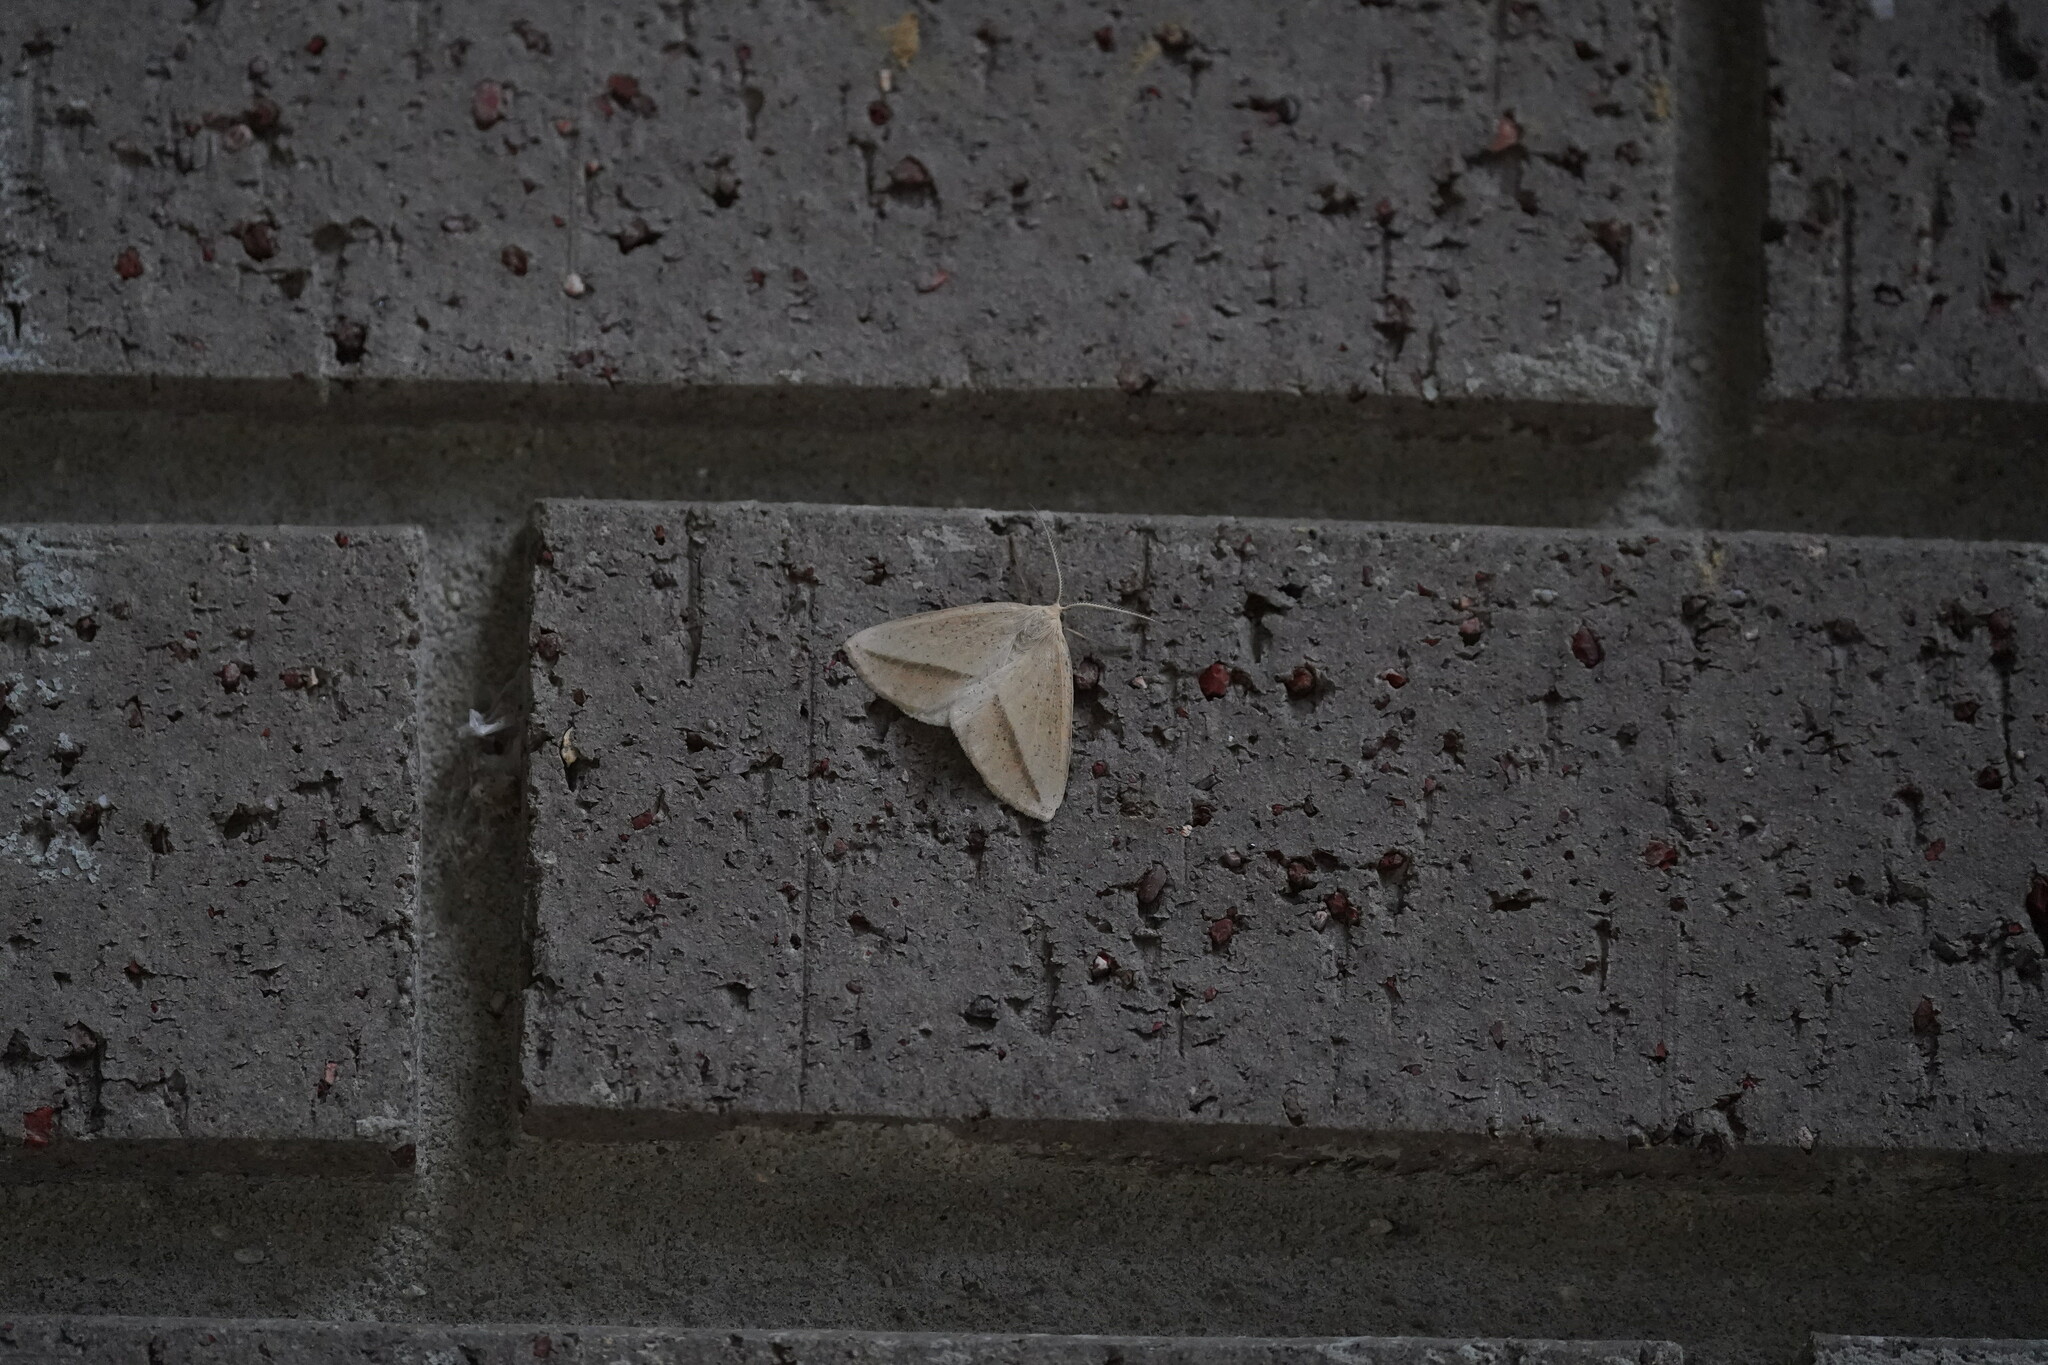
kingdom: Animalia
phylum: Arthropoda
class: Insecta
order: Lepidoptera
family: Geometridae
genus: Lychnosea
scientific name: Lychnosea intermicata
